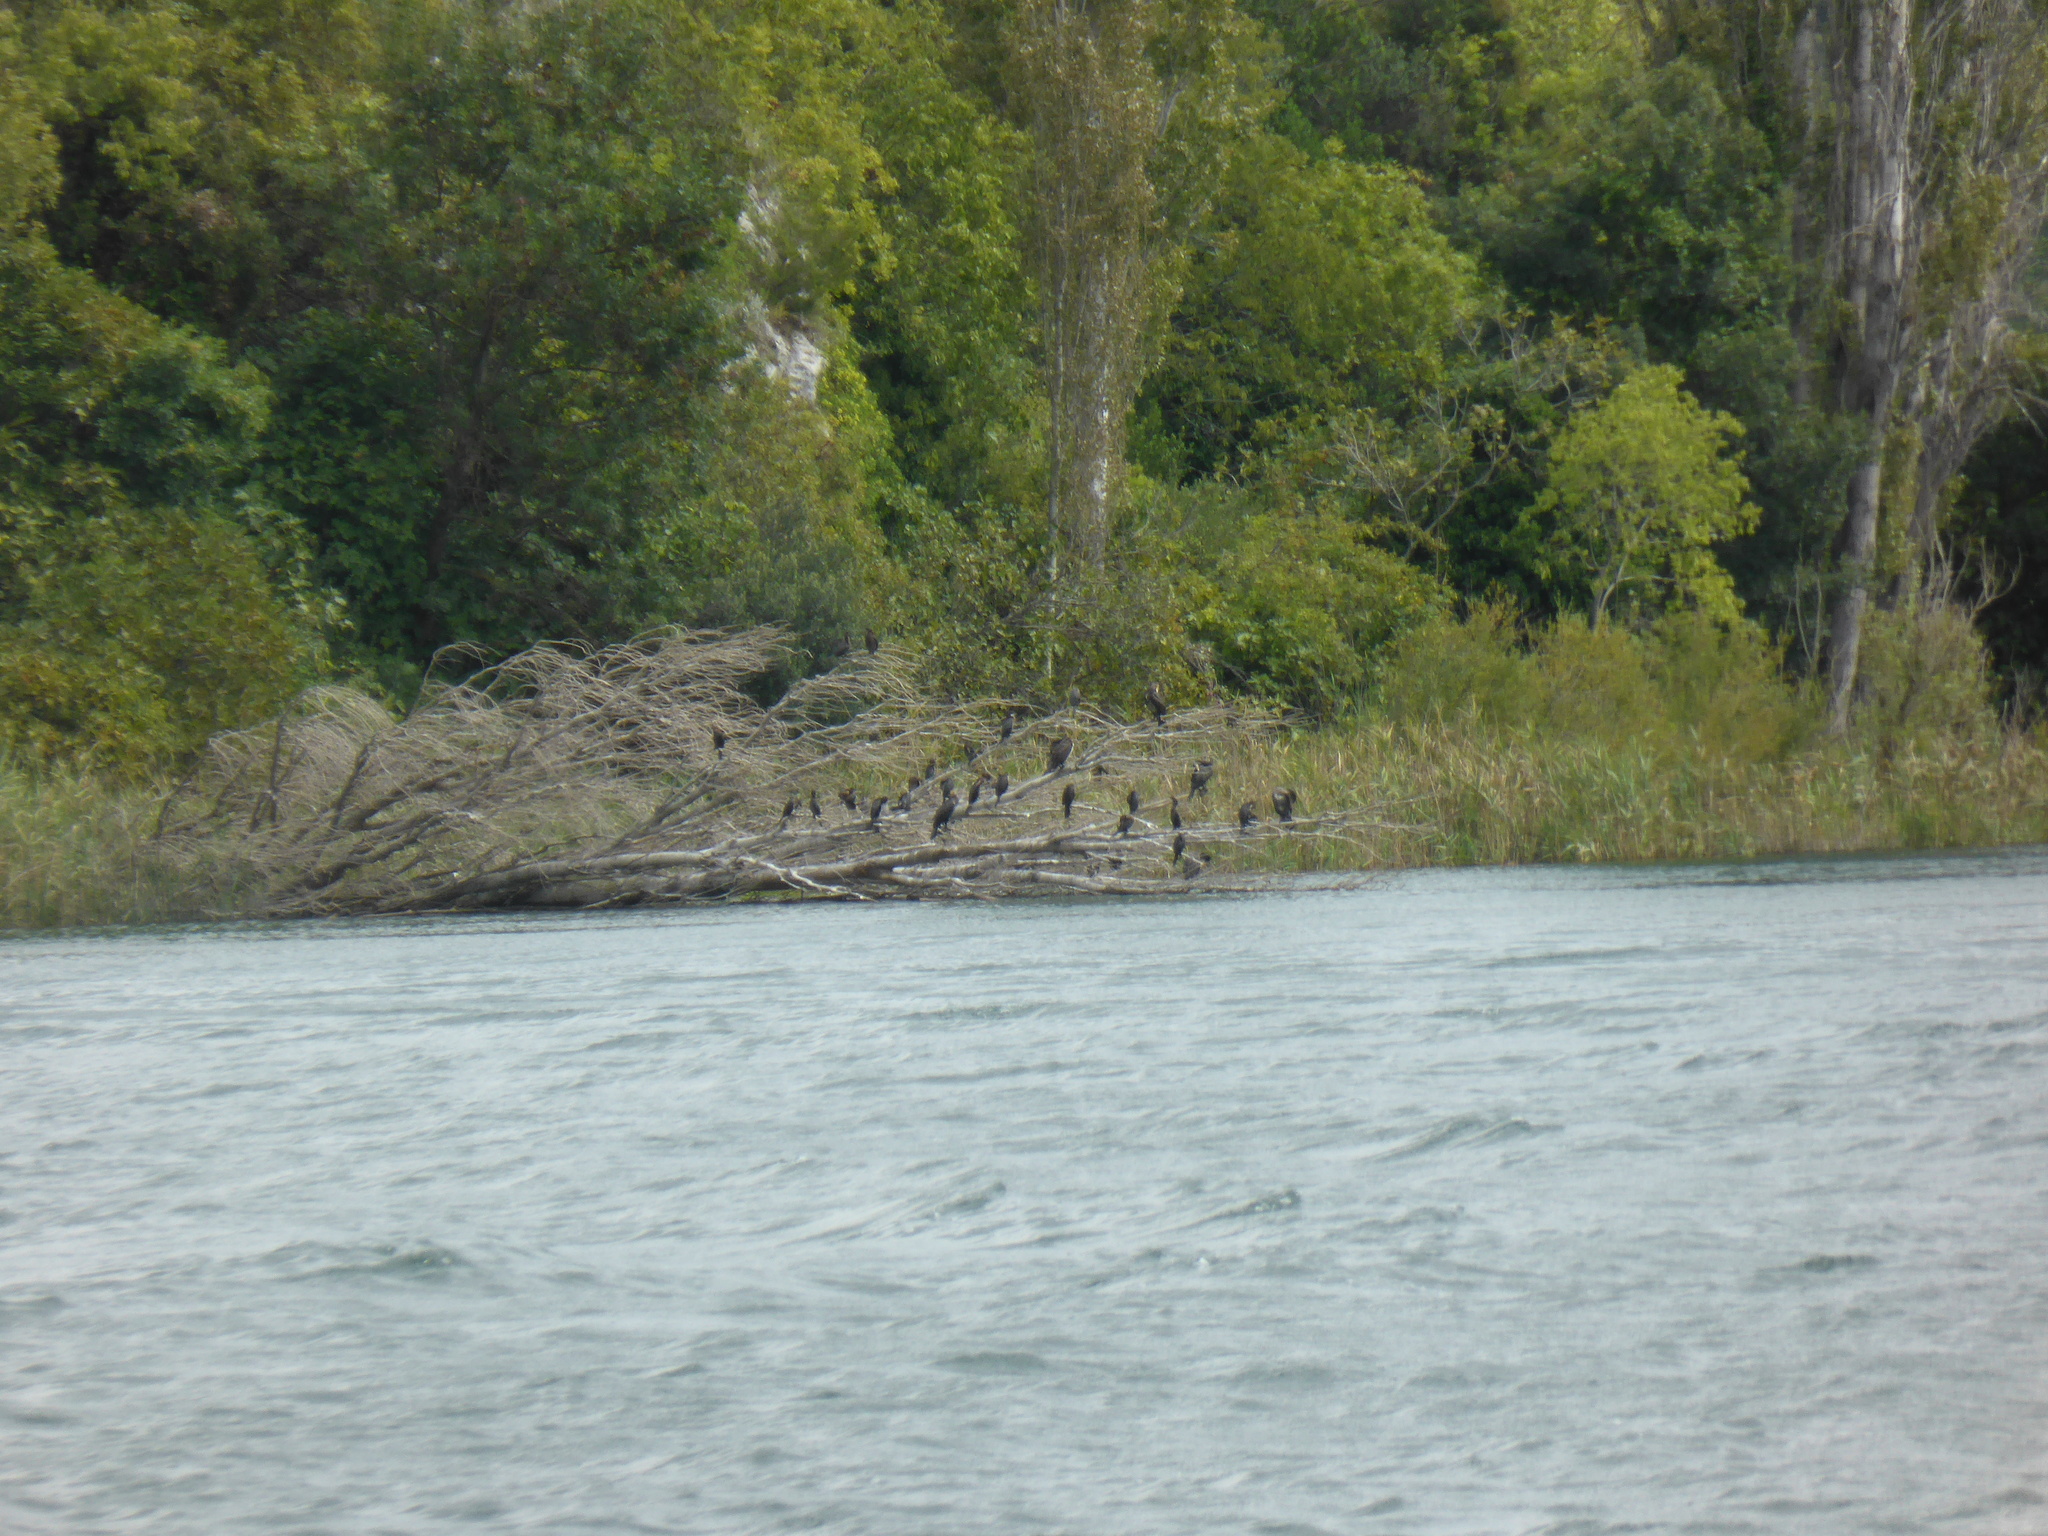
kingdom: Animalia
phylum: Chordata
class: Aves
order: Suliformes
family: Phalacrocoracidae
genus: Microcarbo
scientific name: Microcarbo pygmaeus
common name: Pygmy cormorant
